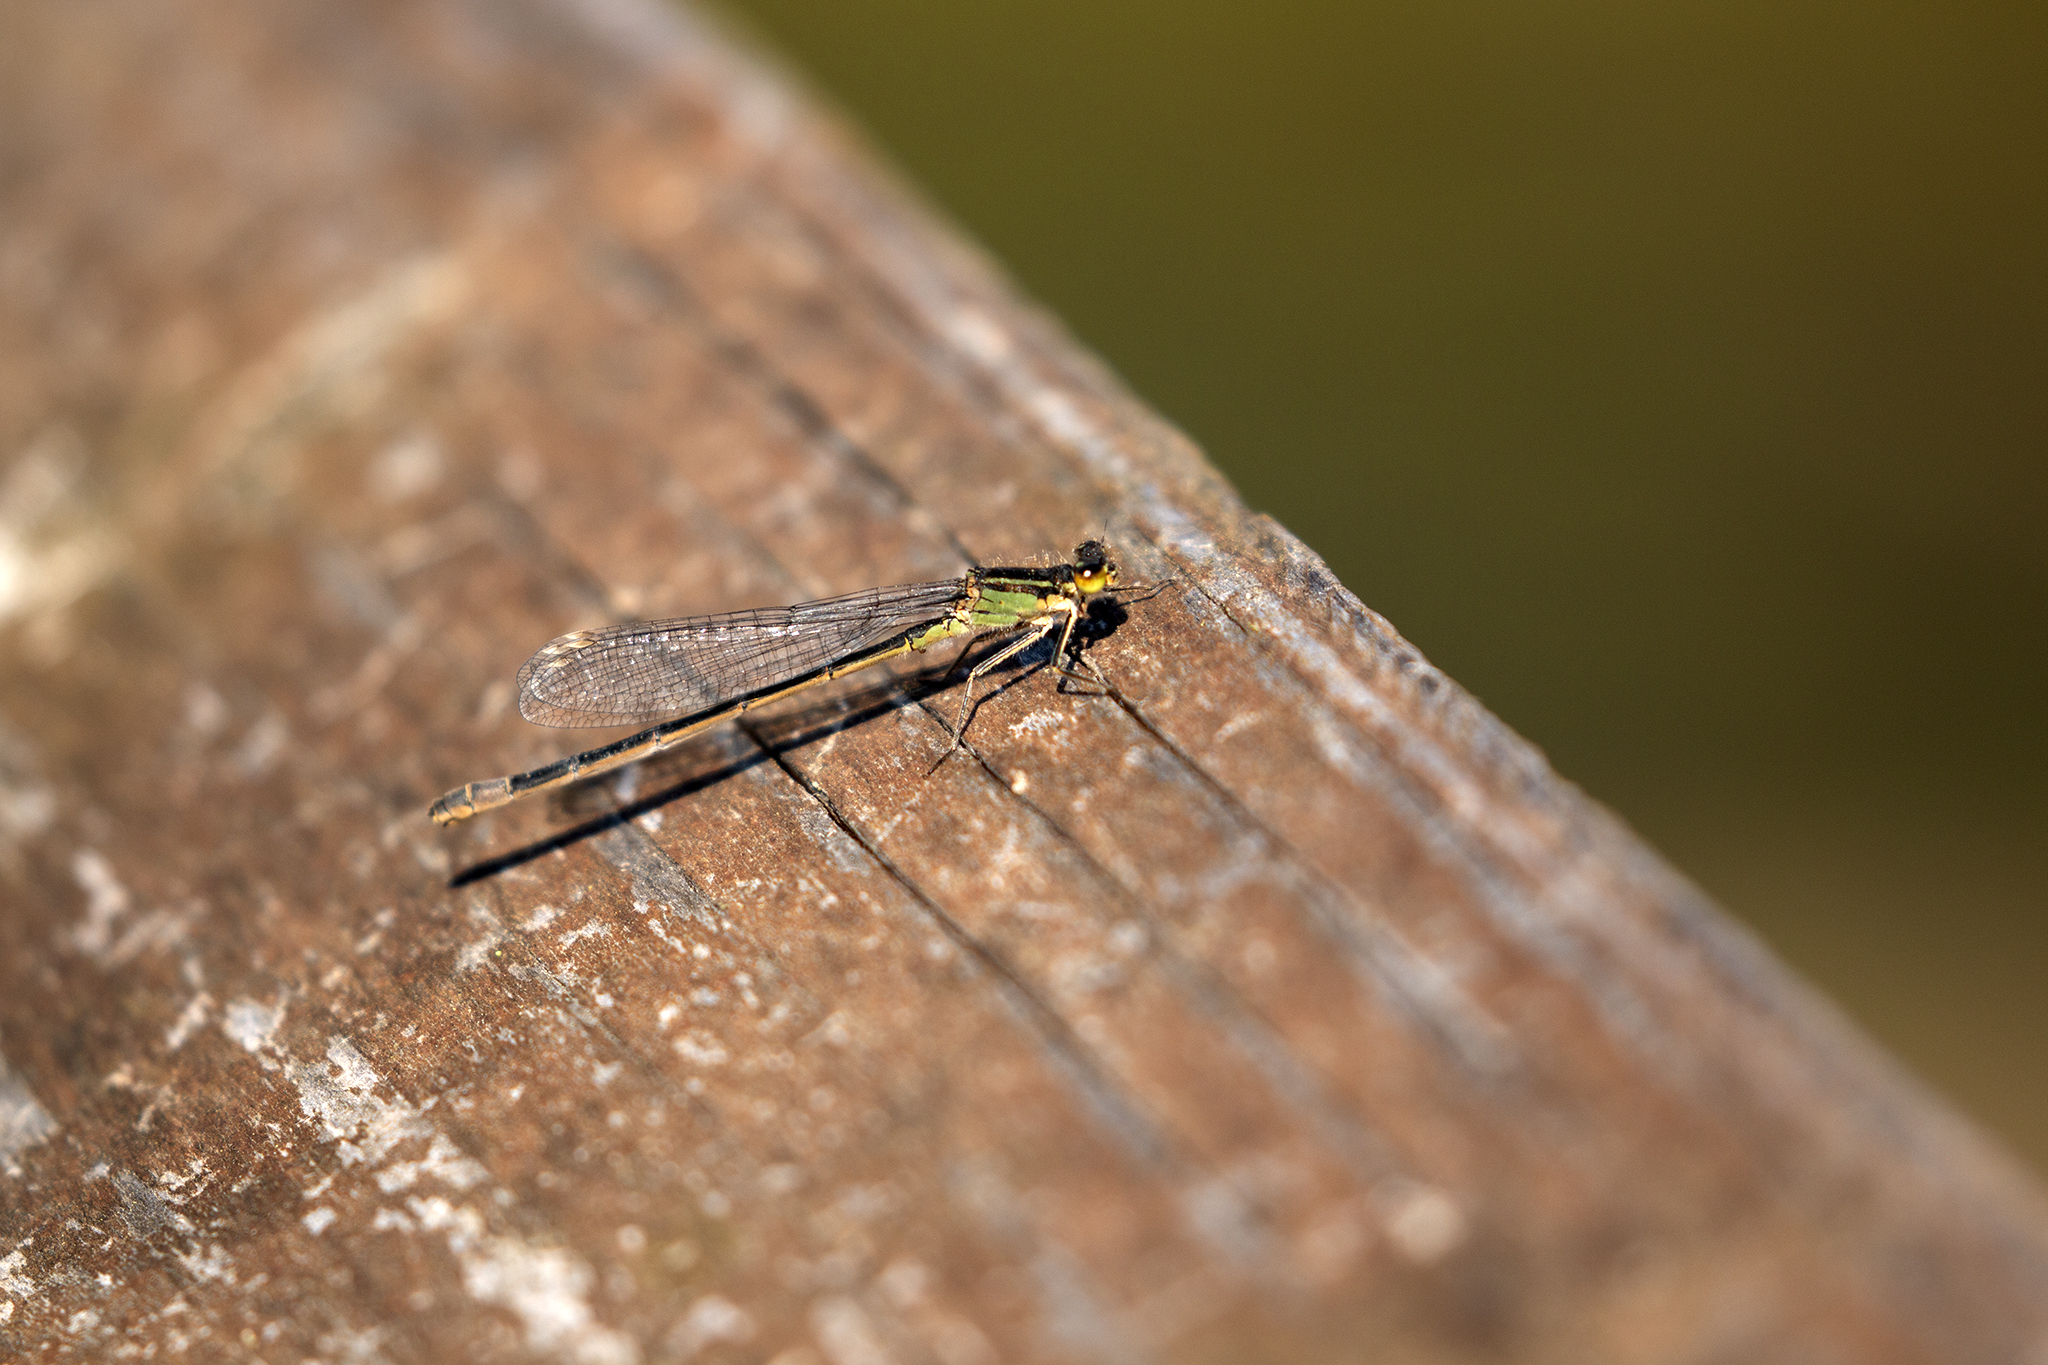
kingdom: Animalia
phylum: Arthropoda
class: Insecta
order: Odonata
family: Coenagrionidae
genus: Ischnura
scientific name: Ischnura elegans
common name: Blue-tailed damselfly
